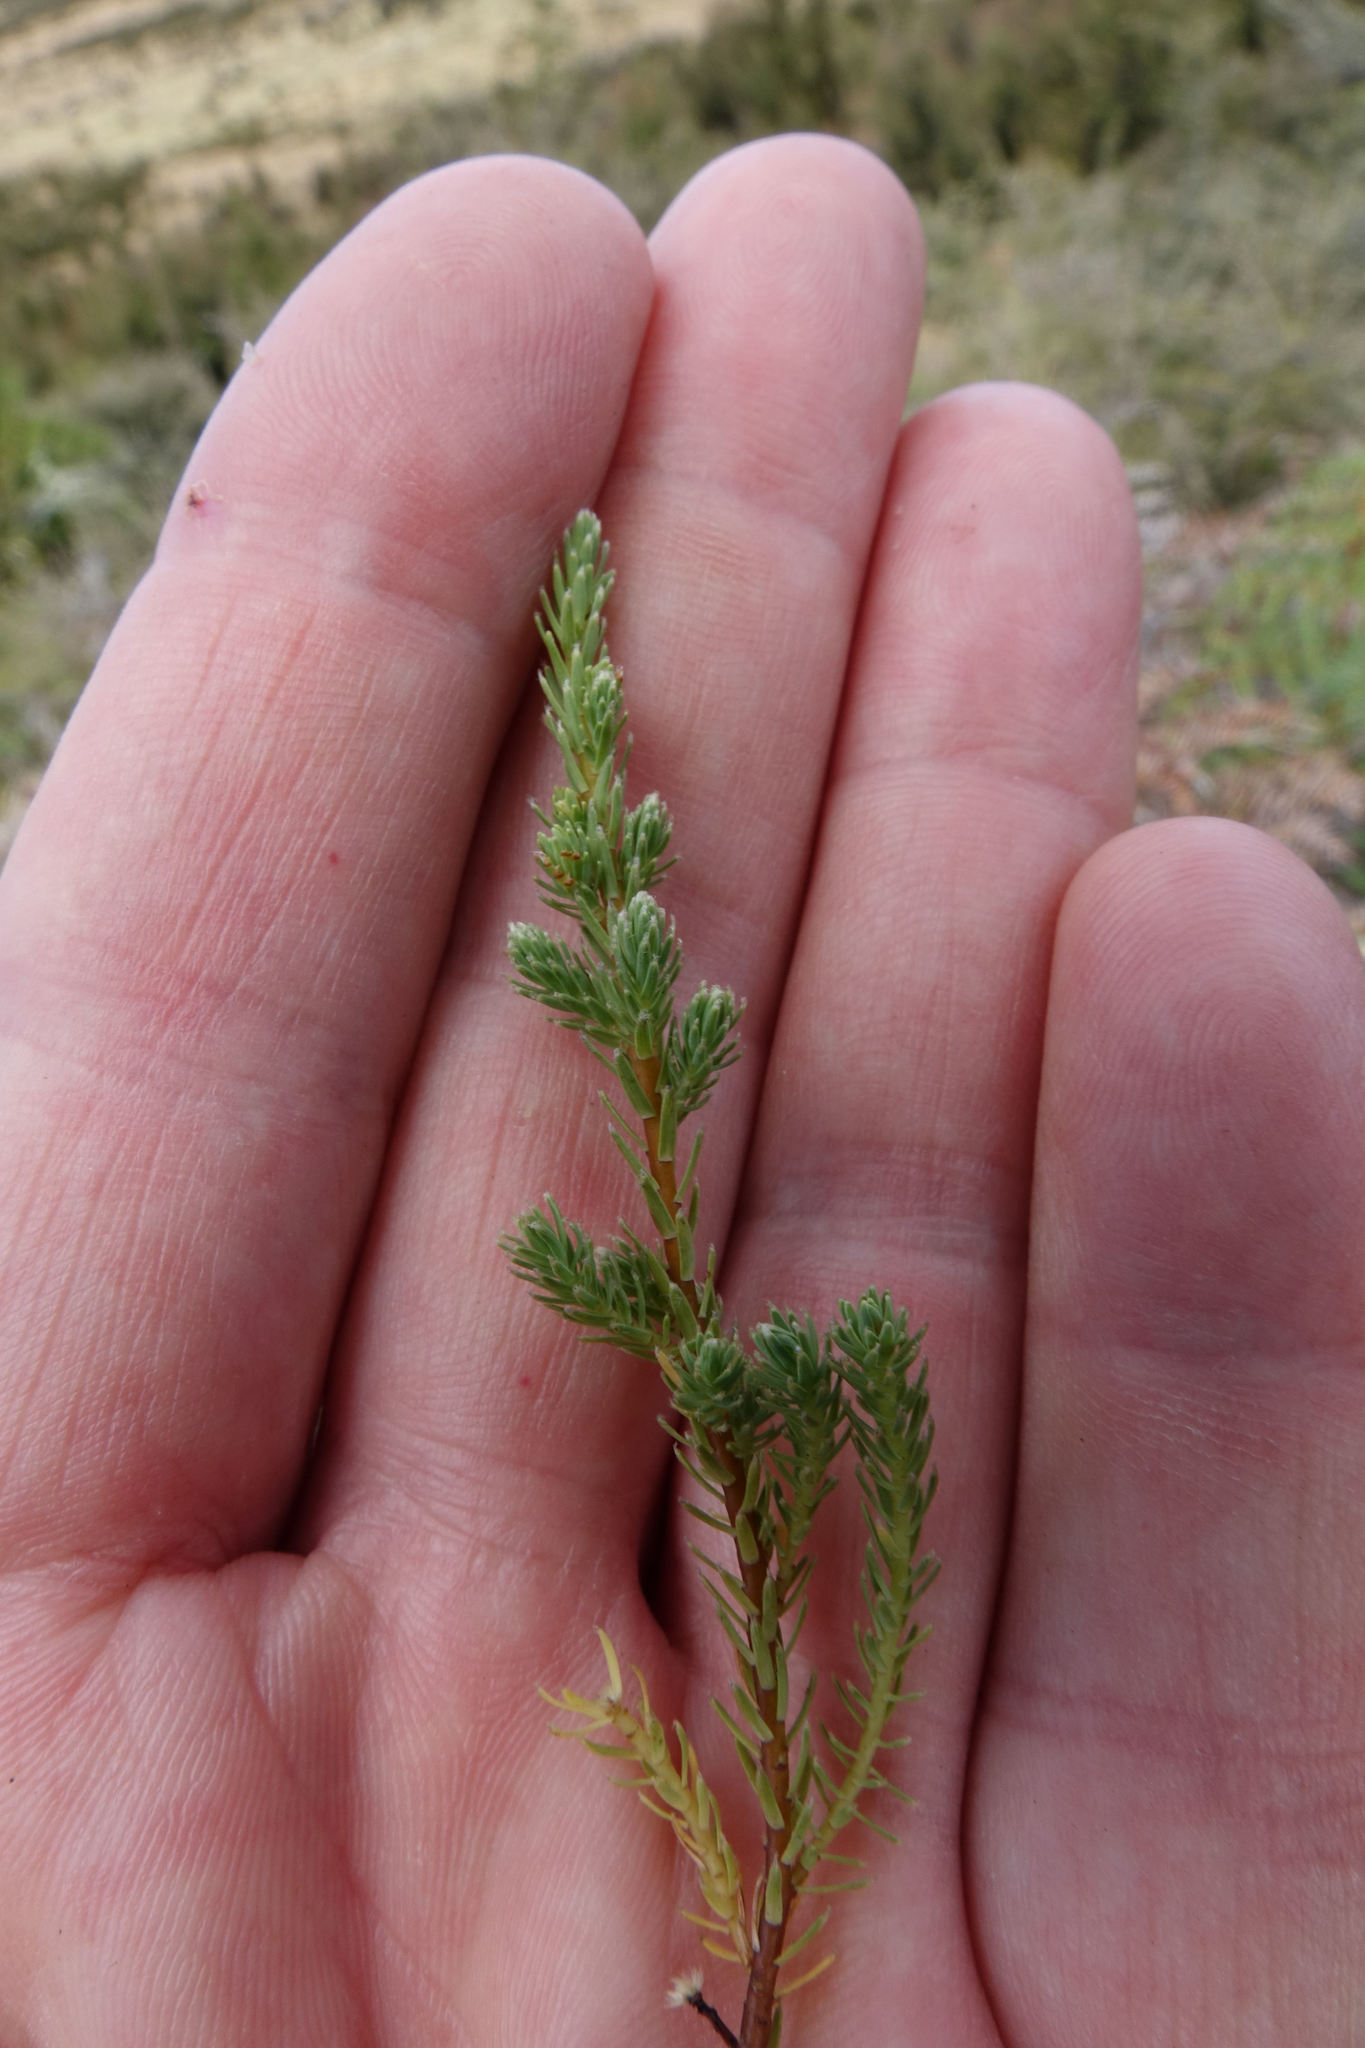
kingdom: Plantae
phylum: Tracheophyta
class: Magnoliopsida
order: Malvales
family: Thymelaeaceae
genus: Kelleria
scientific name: Kelleria laxa
